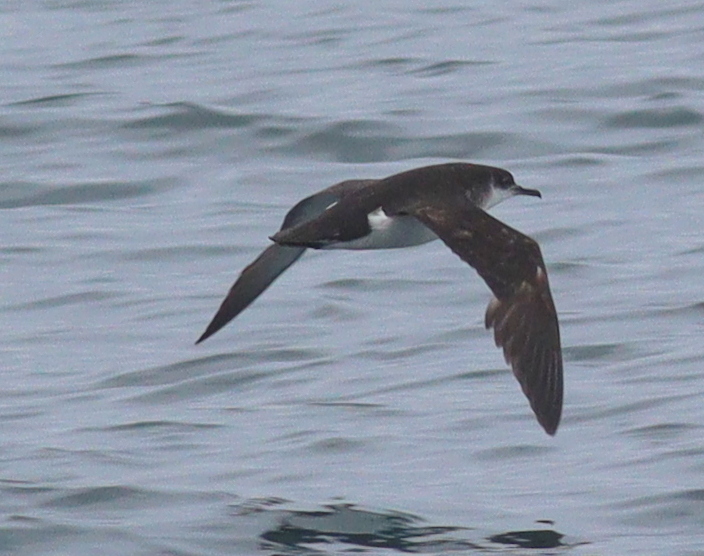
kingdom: Animalia
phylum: Chordata
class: Aves
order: Procellariiformes
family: Procellariidae
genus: Puffinus
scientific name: Puffinus puffinus
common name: Manx shearwater
